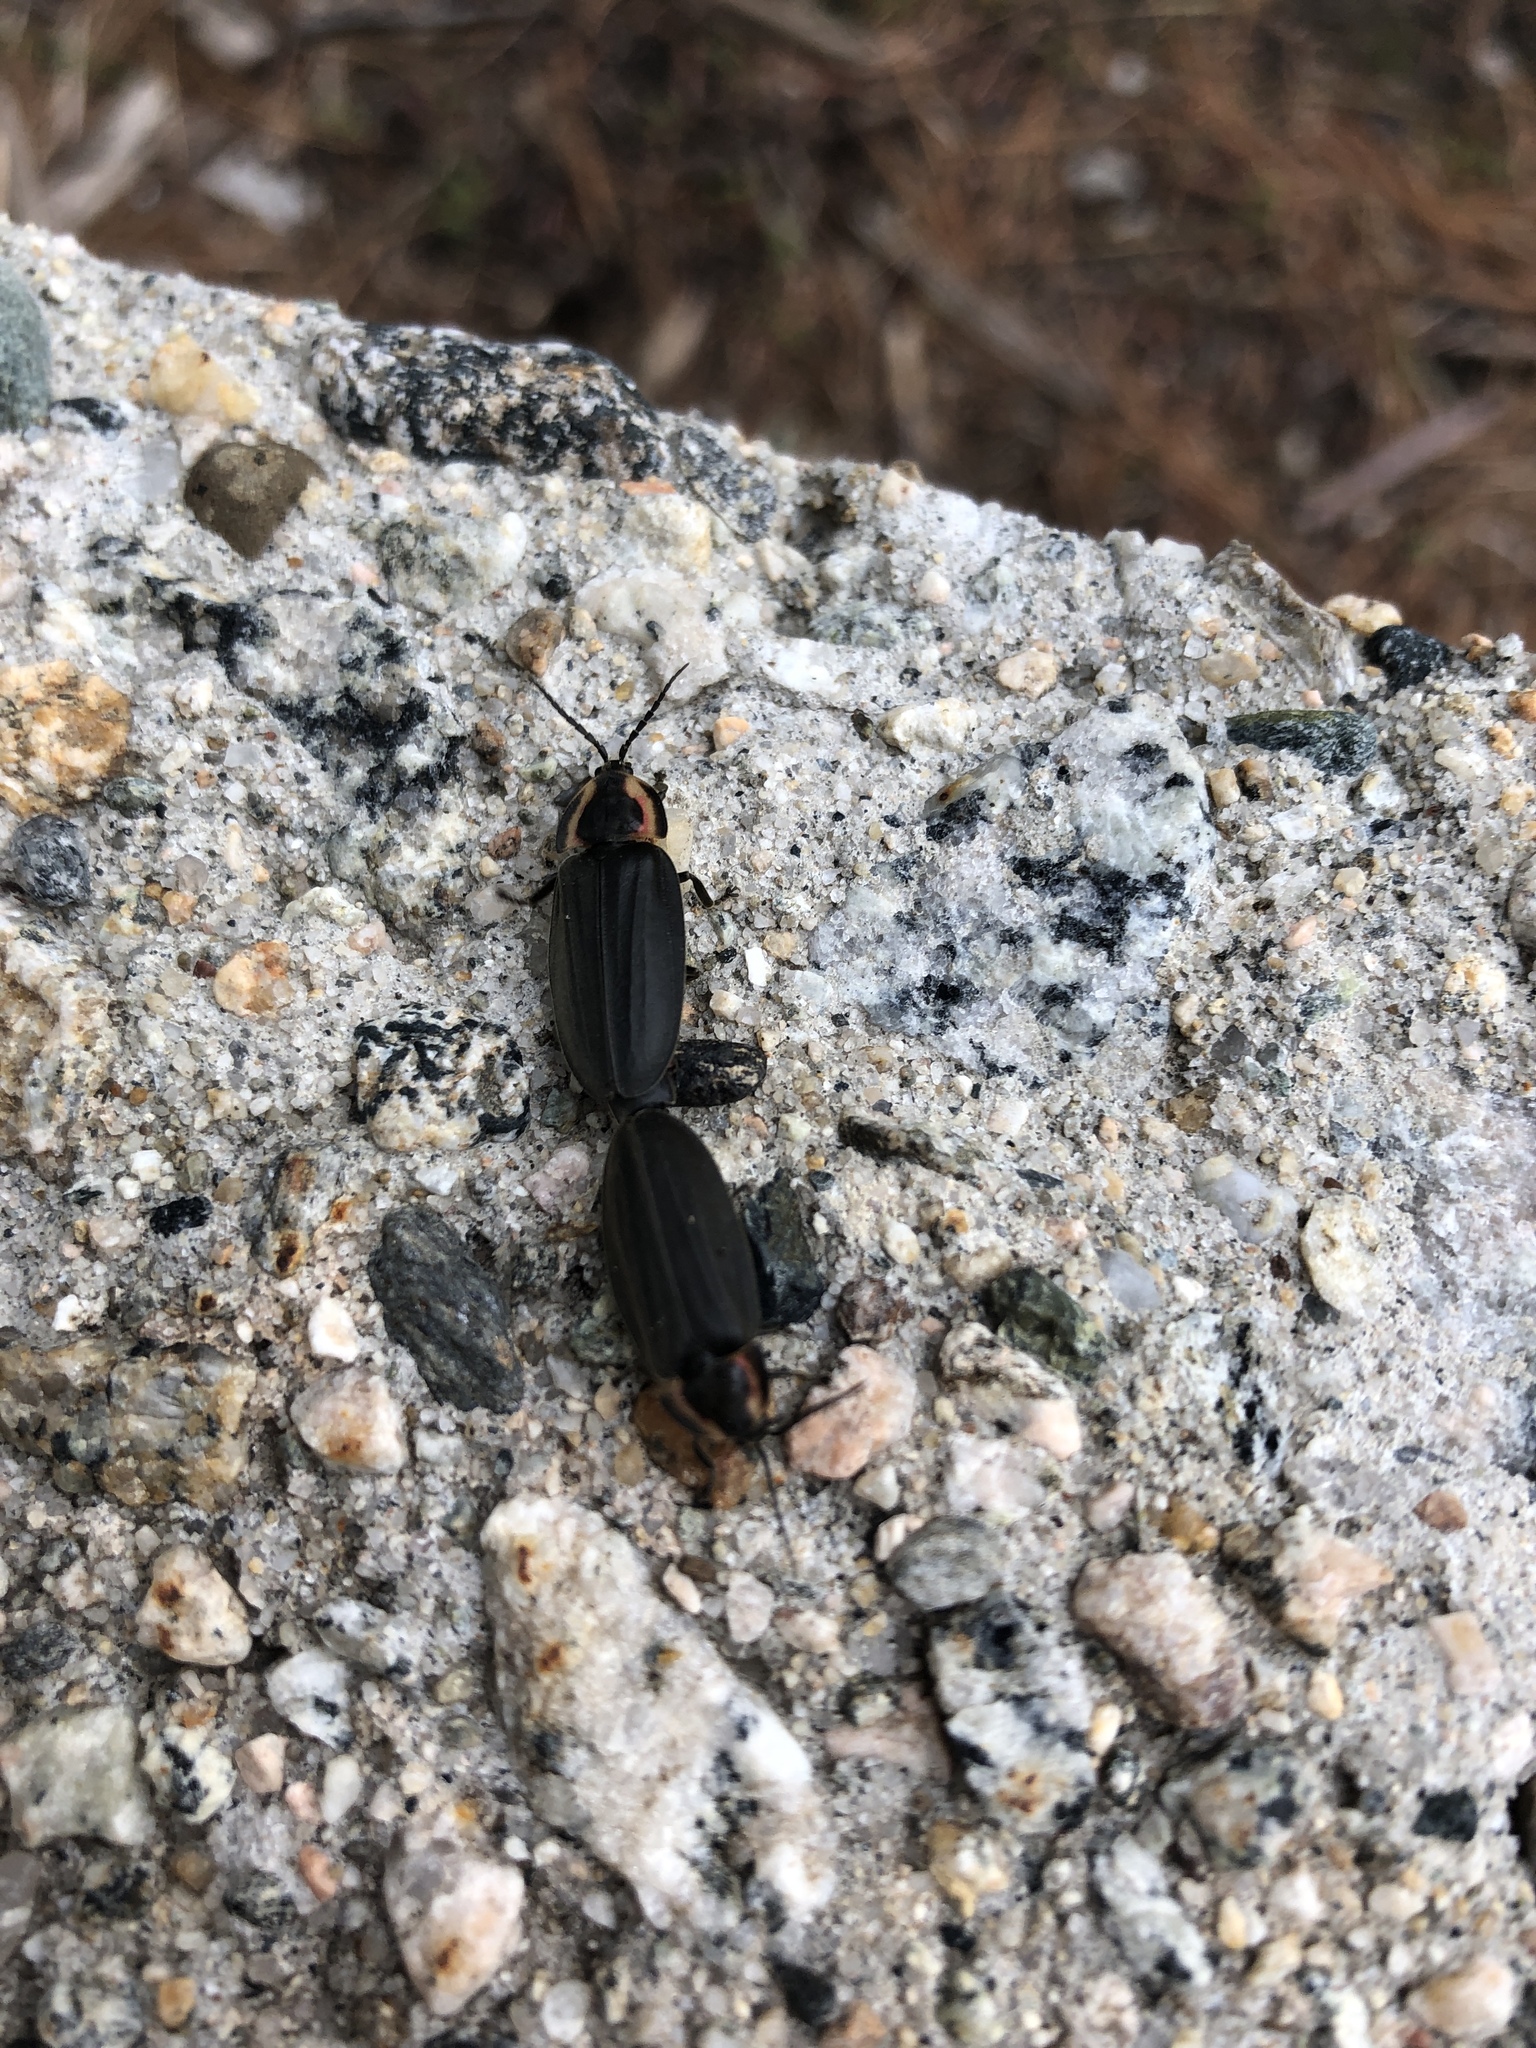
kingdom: Animalia
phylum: Arthropoda
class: Insecta
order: Coleoptera
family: Lampyridae
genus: Photinus
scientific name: Photinus corrusca
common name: Winter firefly
